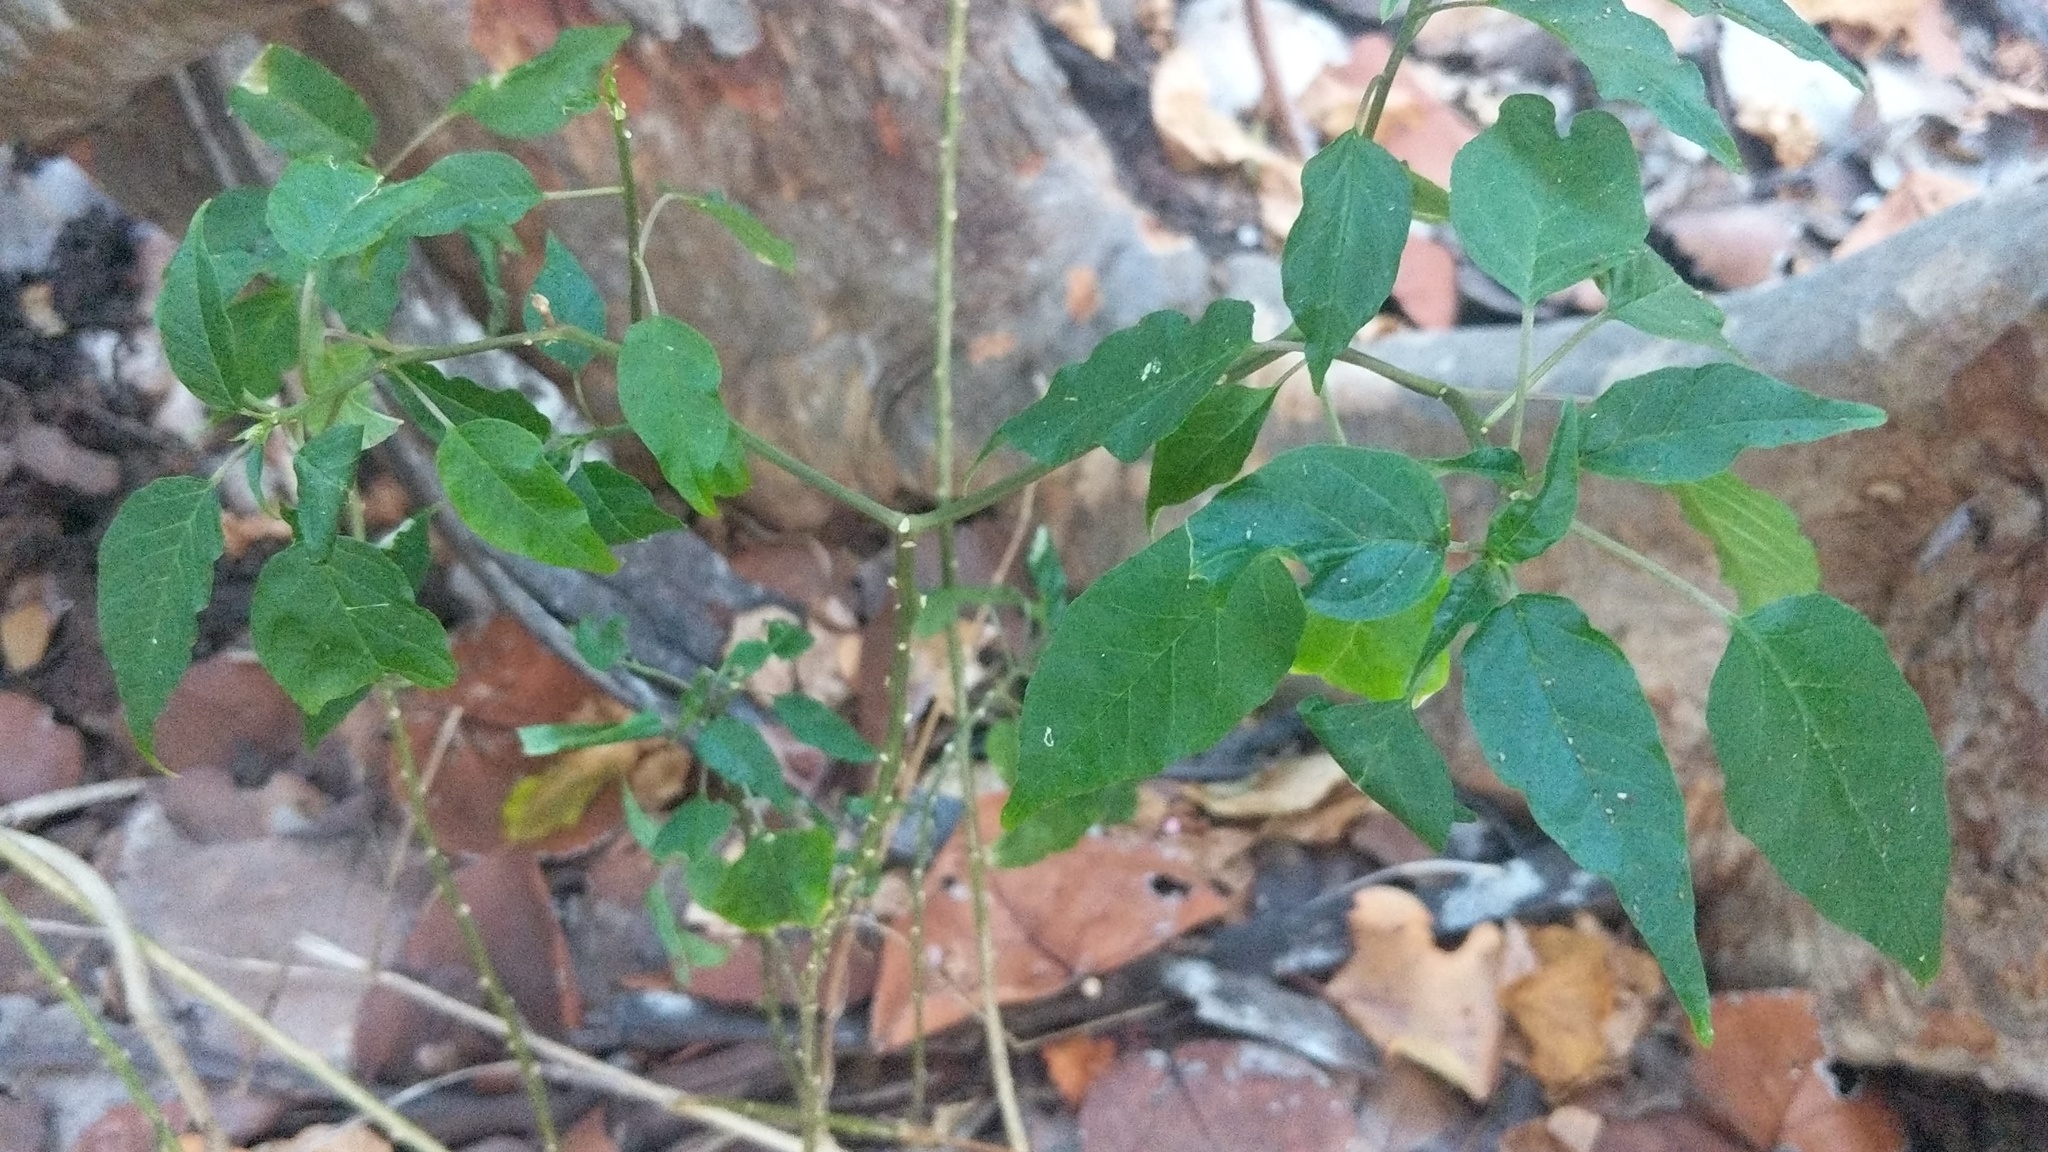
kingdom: Plantae
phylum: Tracheophyta
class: Magnoliopsida
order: Caryophyllales
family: Phytolaccaceae
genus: Rivina
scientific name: Rivina humilis
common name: Rougeplant
